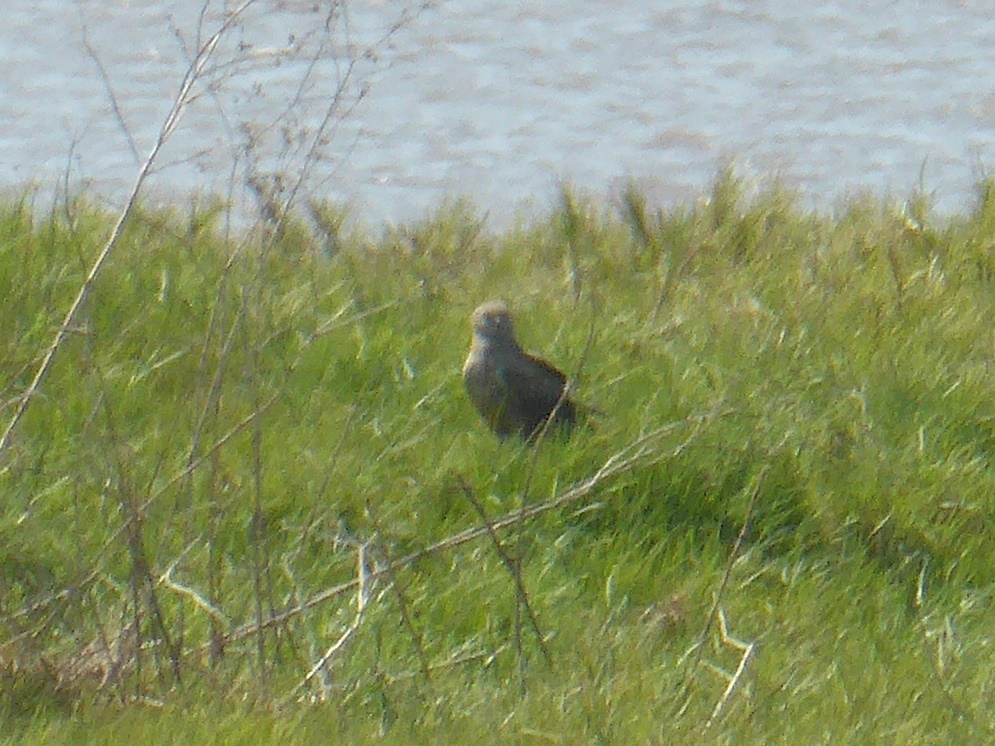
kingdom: Animalia
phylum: Chordata
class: Aves
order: Accipitriformes
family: Accipitridae
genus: Circus
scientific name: Circus ranivorus
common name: African marsh-harrier
